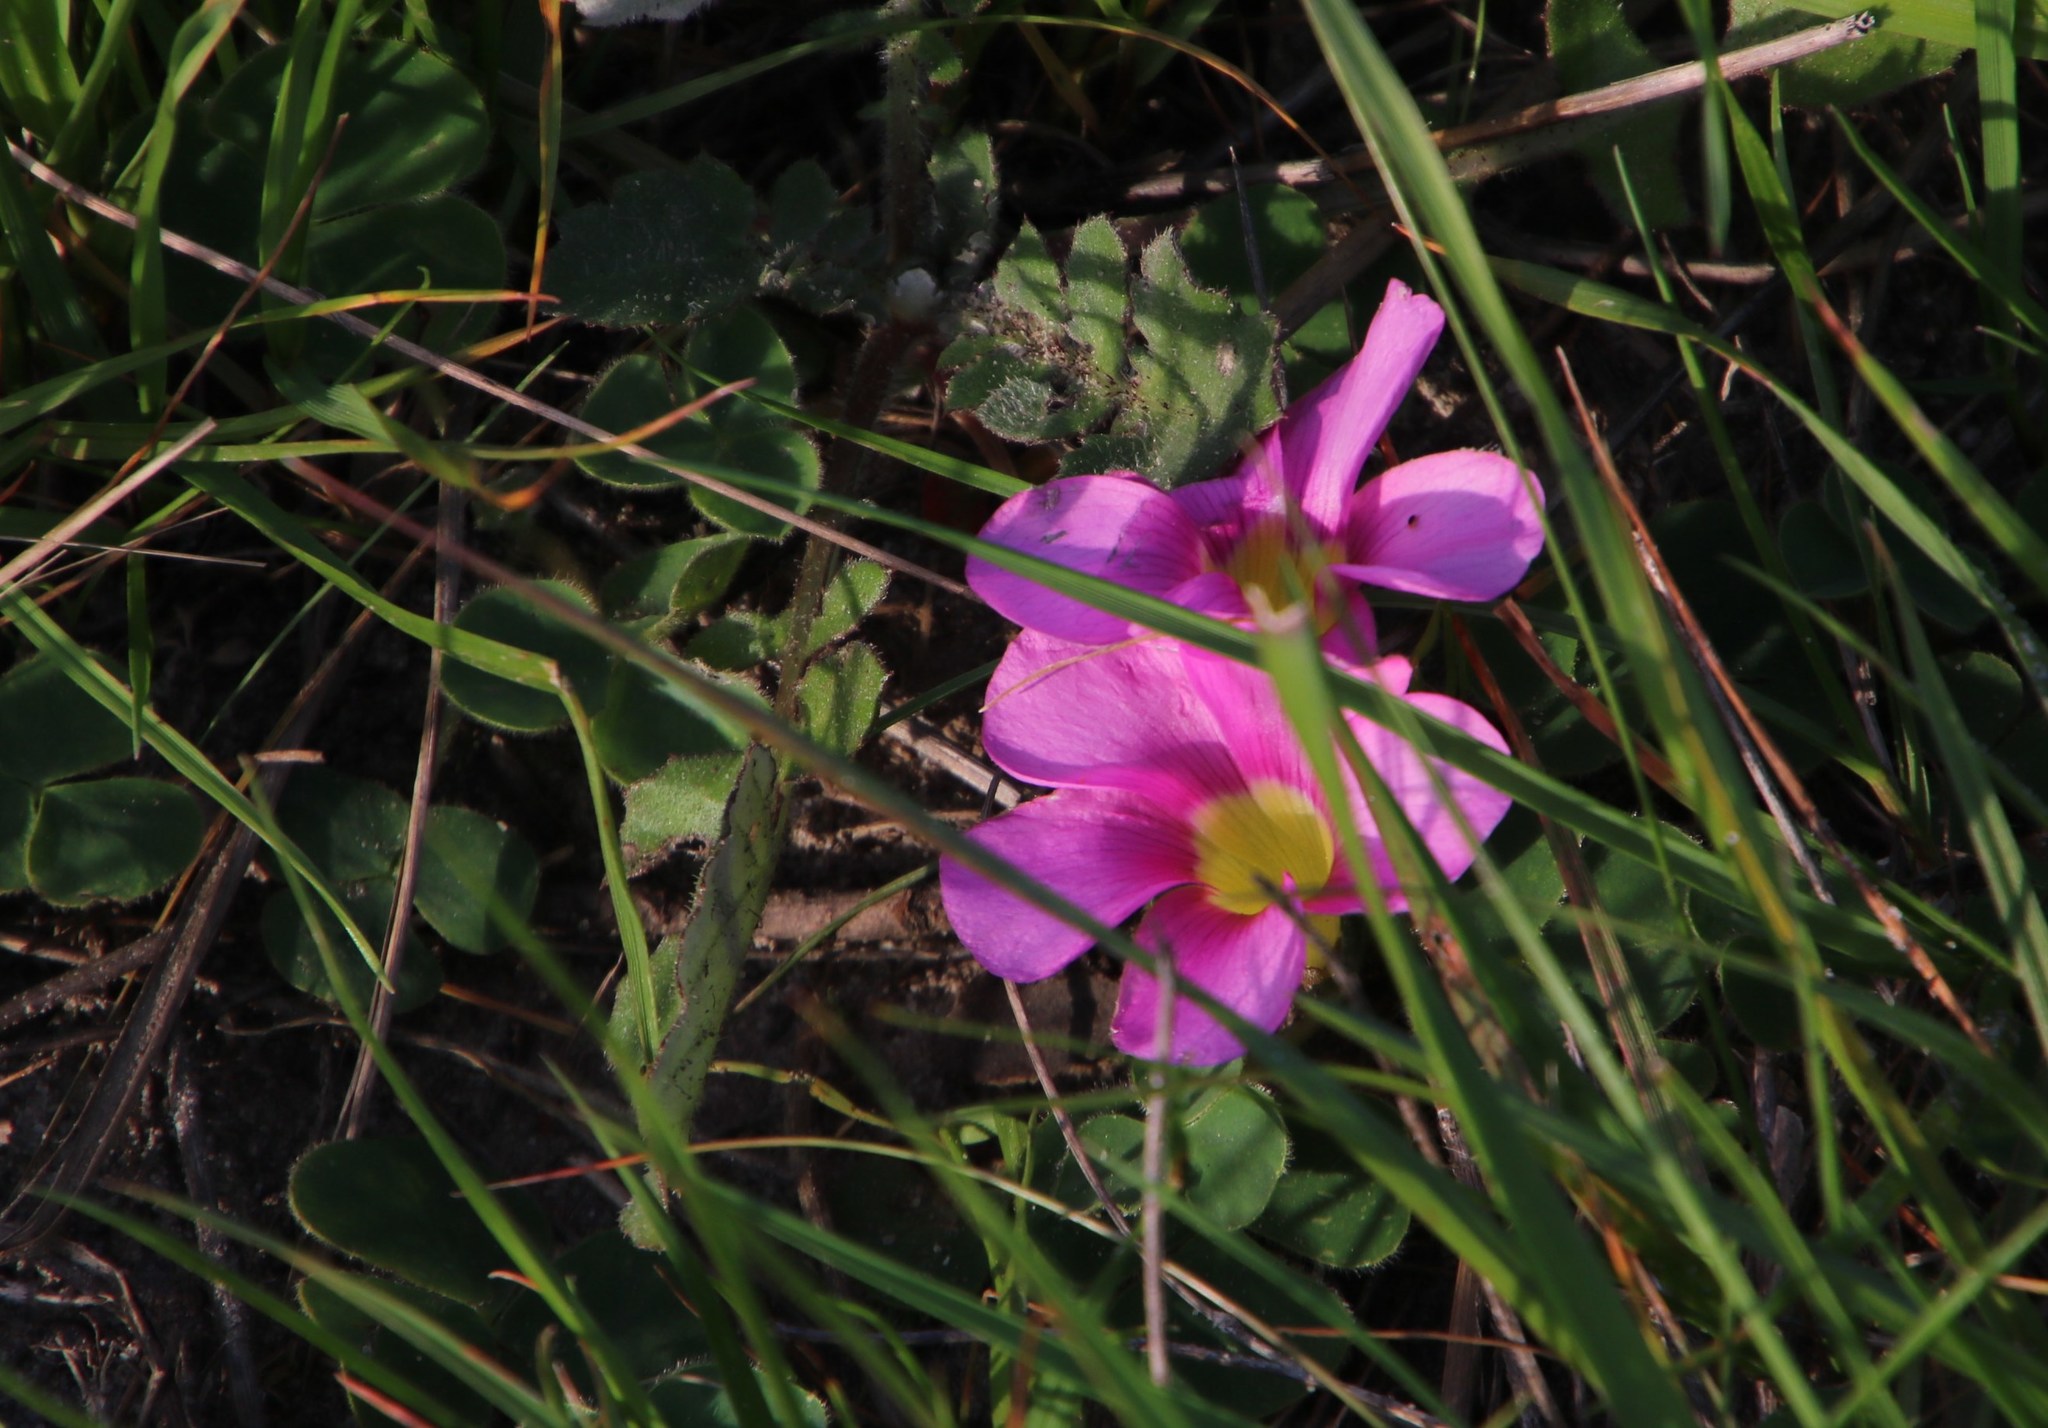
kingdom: Plantae
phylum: Tracheophyta
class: Magnoliopsida
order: Oxalidales
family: Oxalidaceae
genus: Oxalis
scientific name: Oxalis purpurea
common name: Purple woodsorrel
